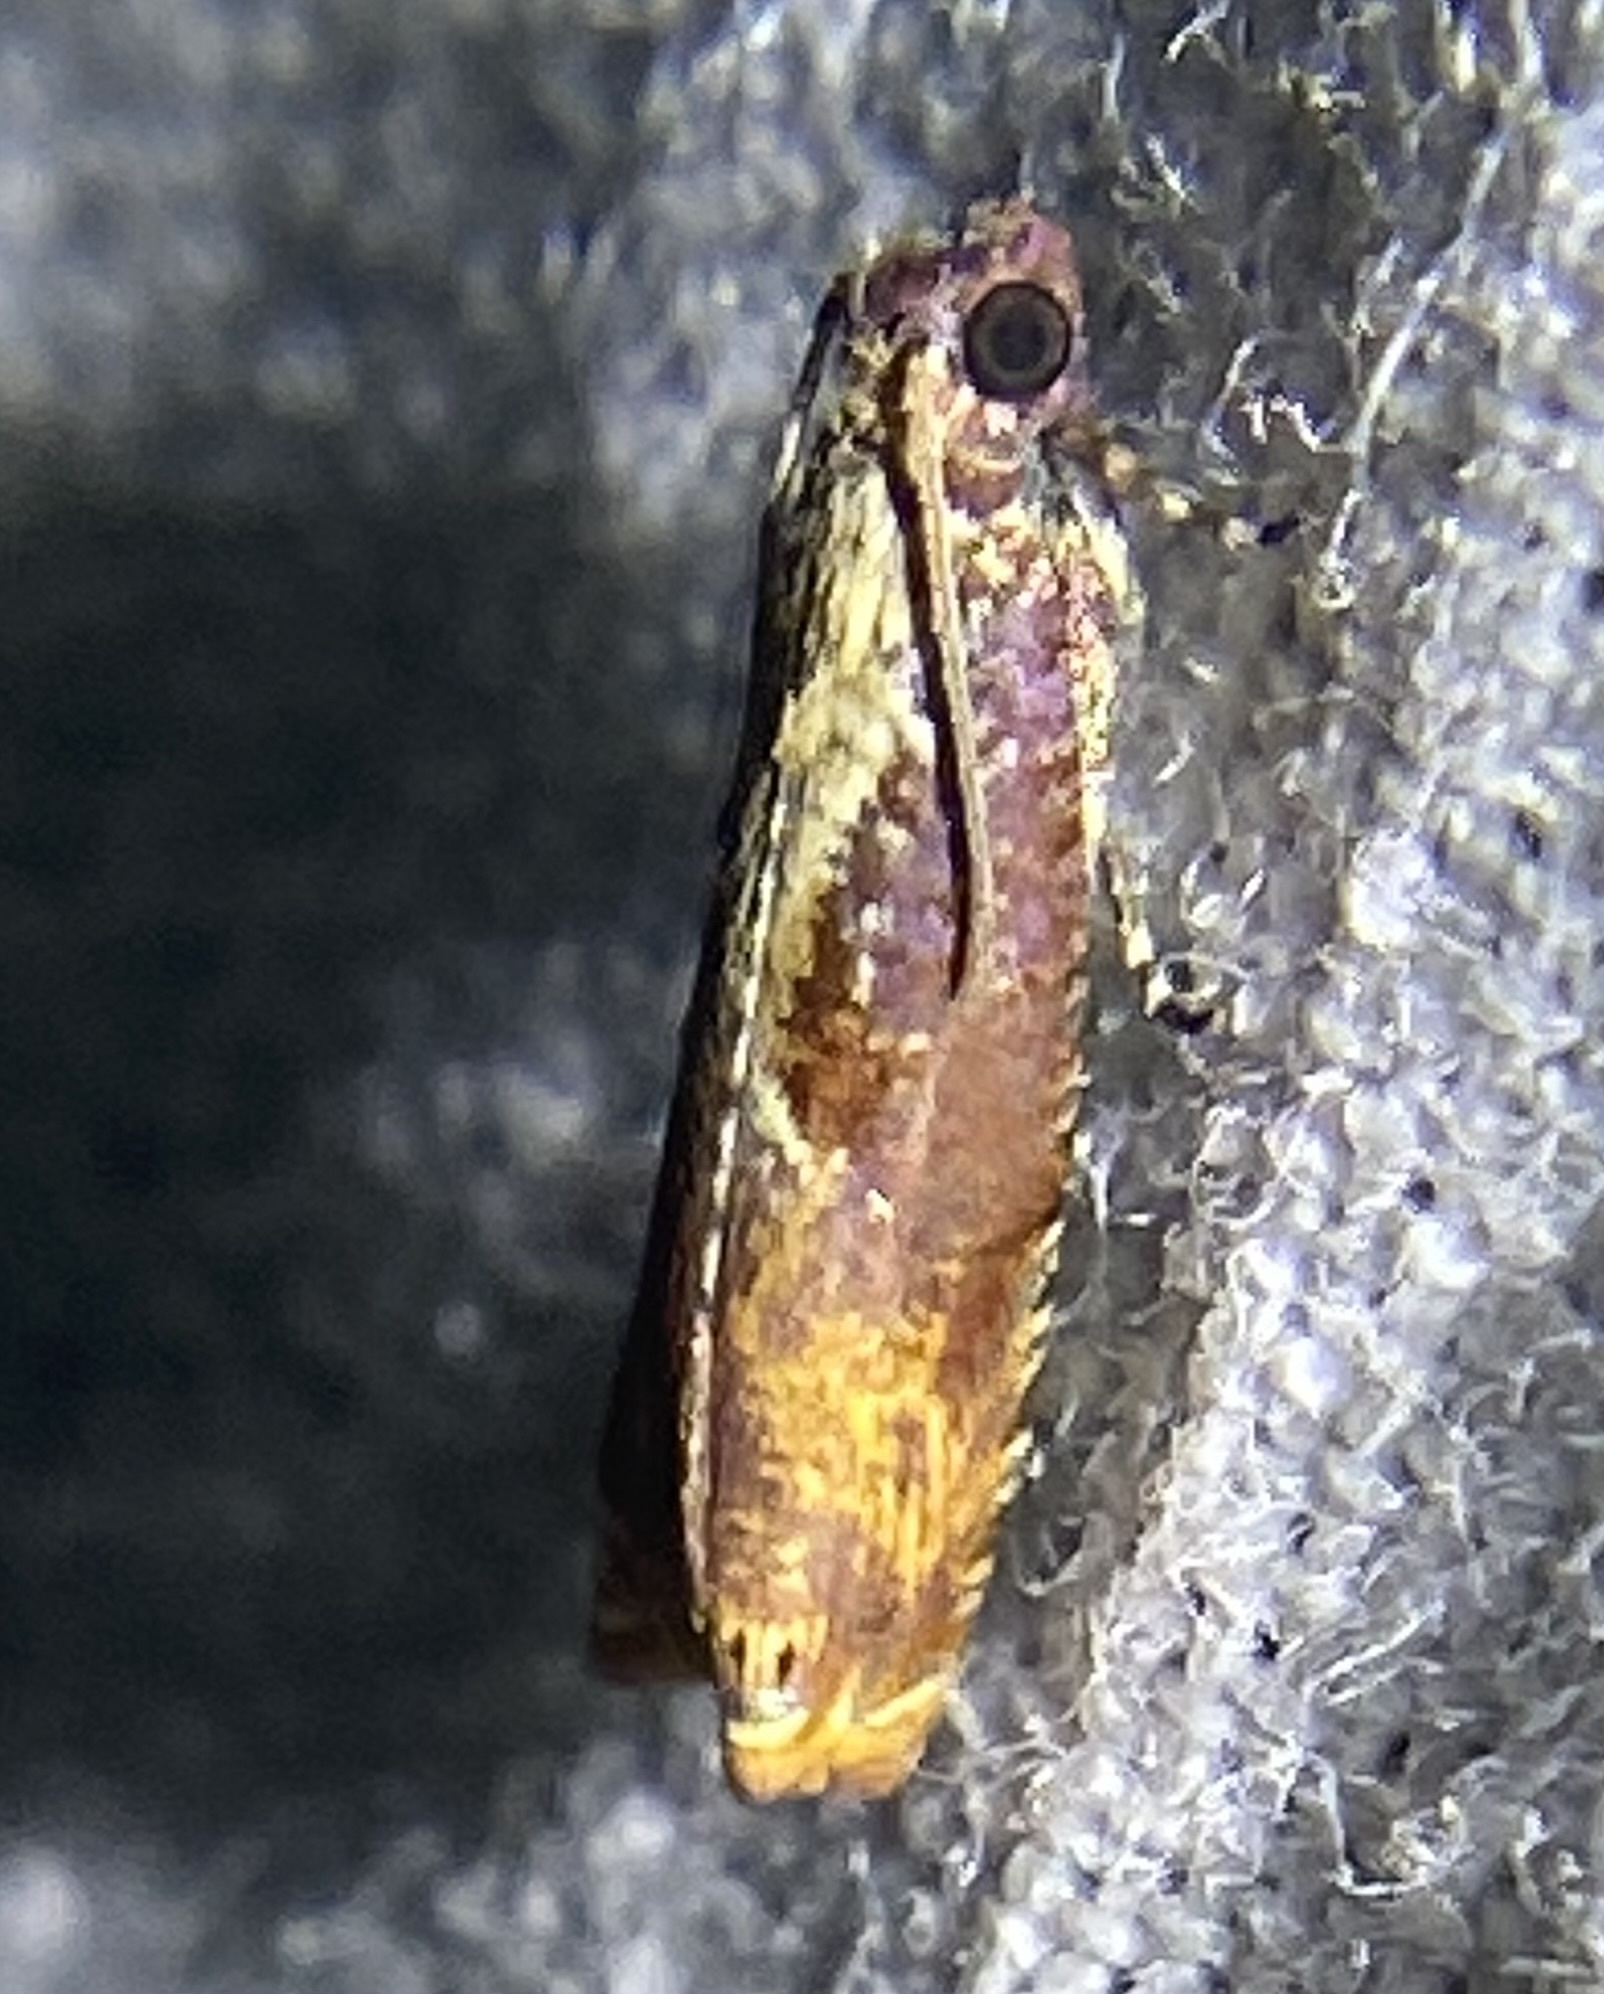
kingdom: Animalia
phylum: Arthropoda
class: Insecta
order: Lepidoptera
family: Tortricidae
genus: Episimus
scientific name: Episimus tyrius
